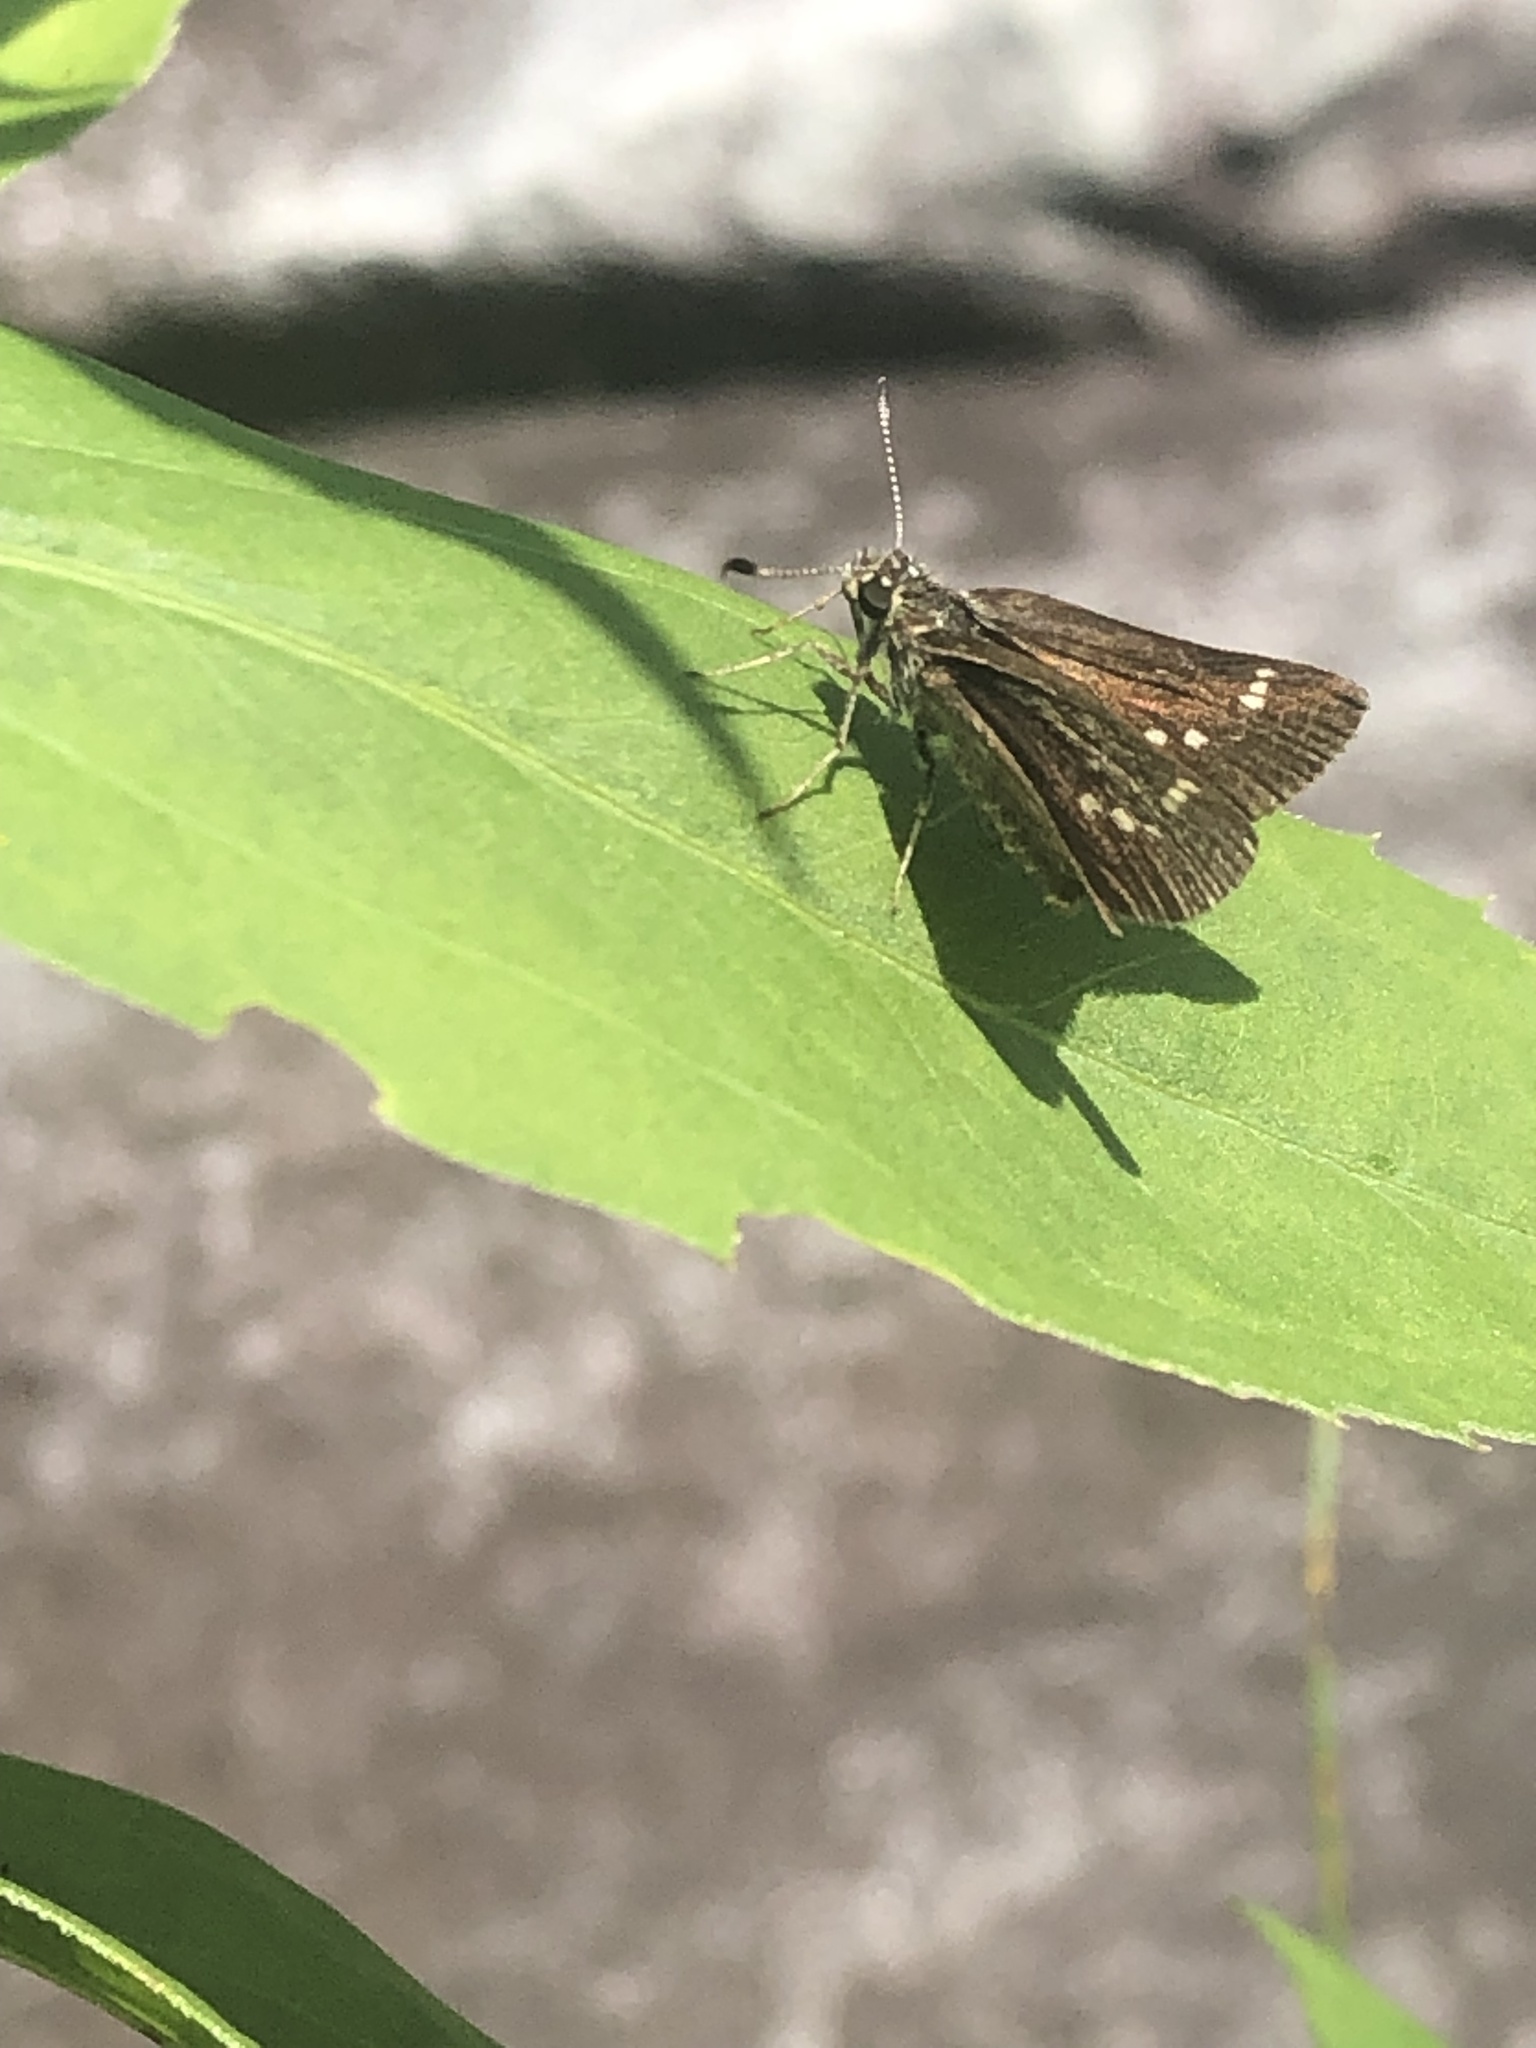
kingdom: Animalia
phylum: Arthropoda
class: Insecta
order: Lepidoptera
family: Hesperiidae
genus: Mastor
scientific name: Mastor hegon
